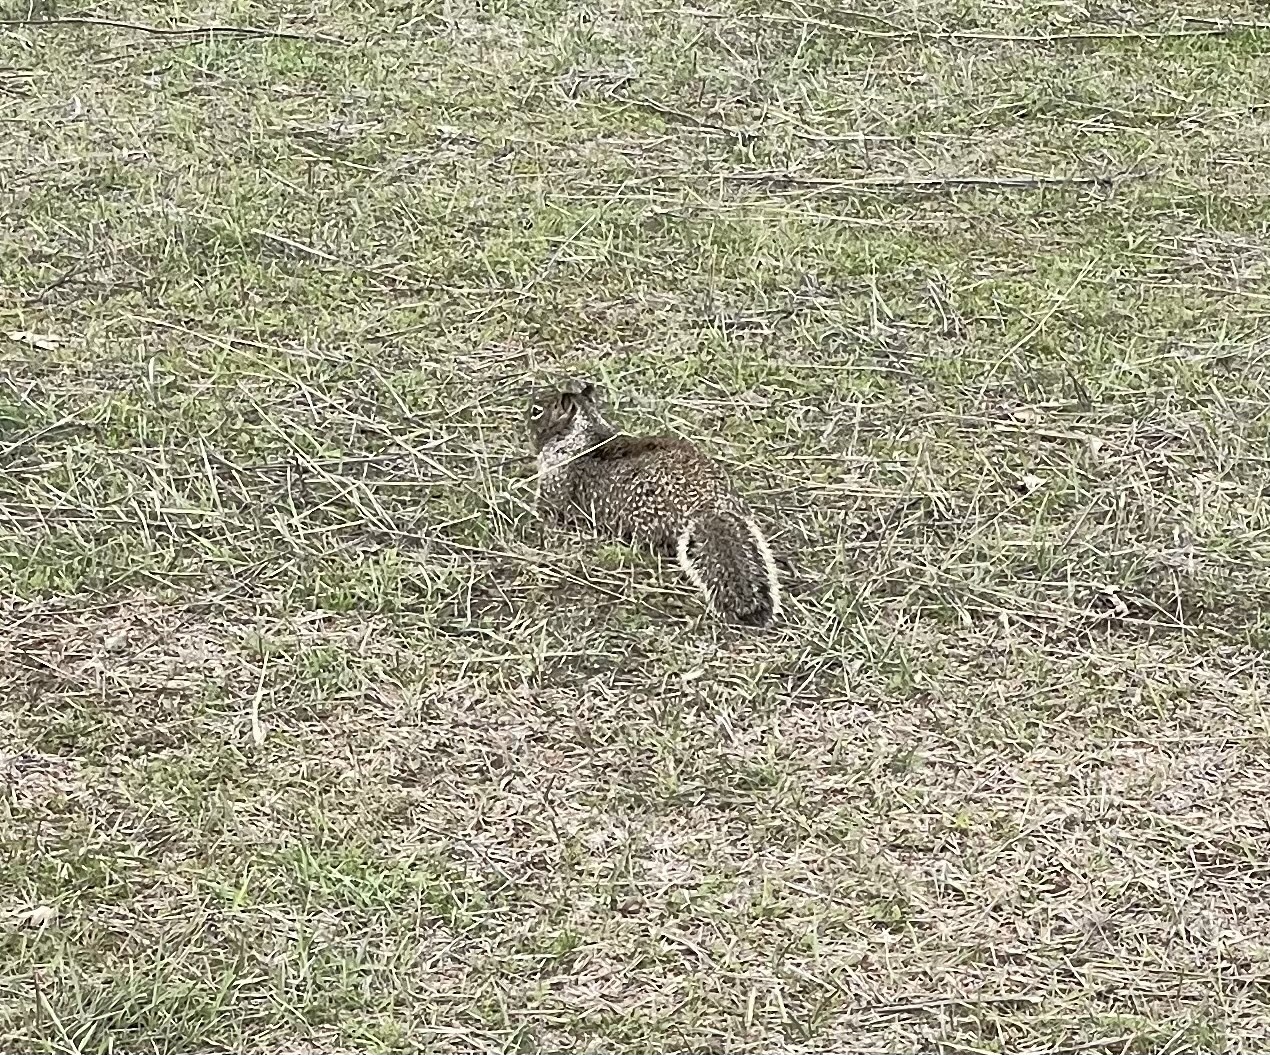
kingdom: Animalia
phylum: Chordata
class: Mammalia
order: Rodentia
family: Sciuridae
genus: Otospermophilus
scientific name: Otospermophilus beecheyi
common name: California ground squirrel
